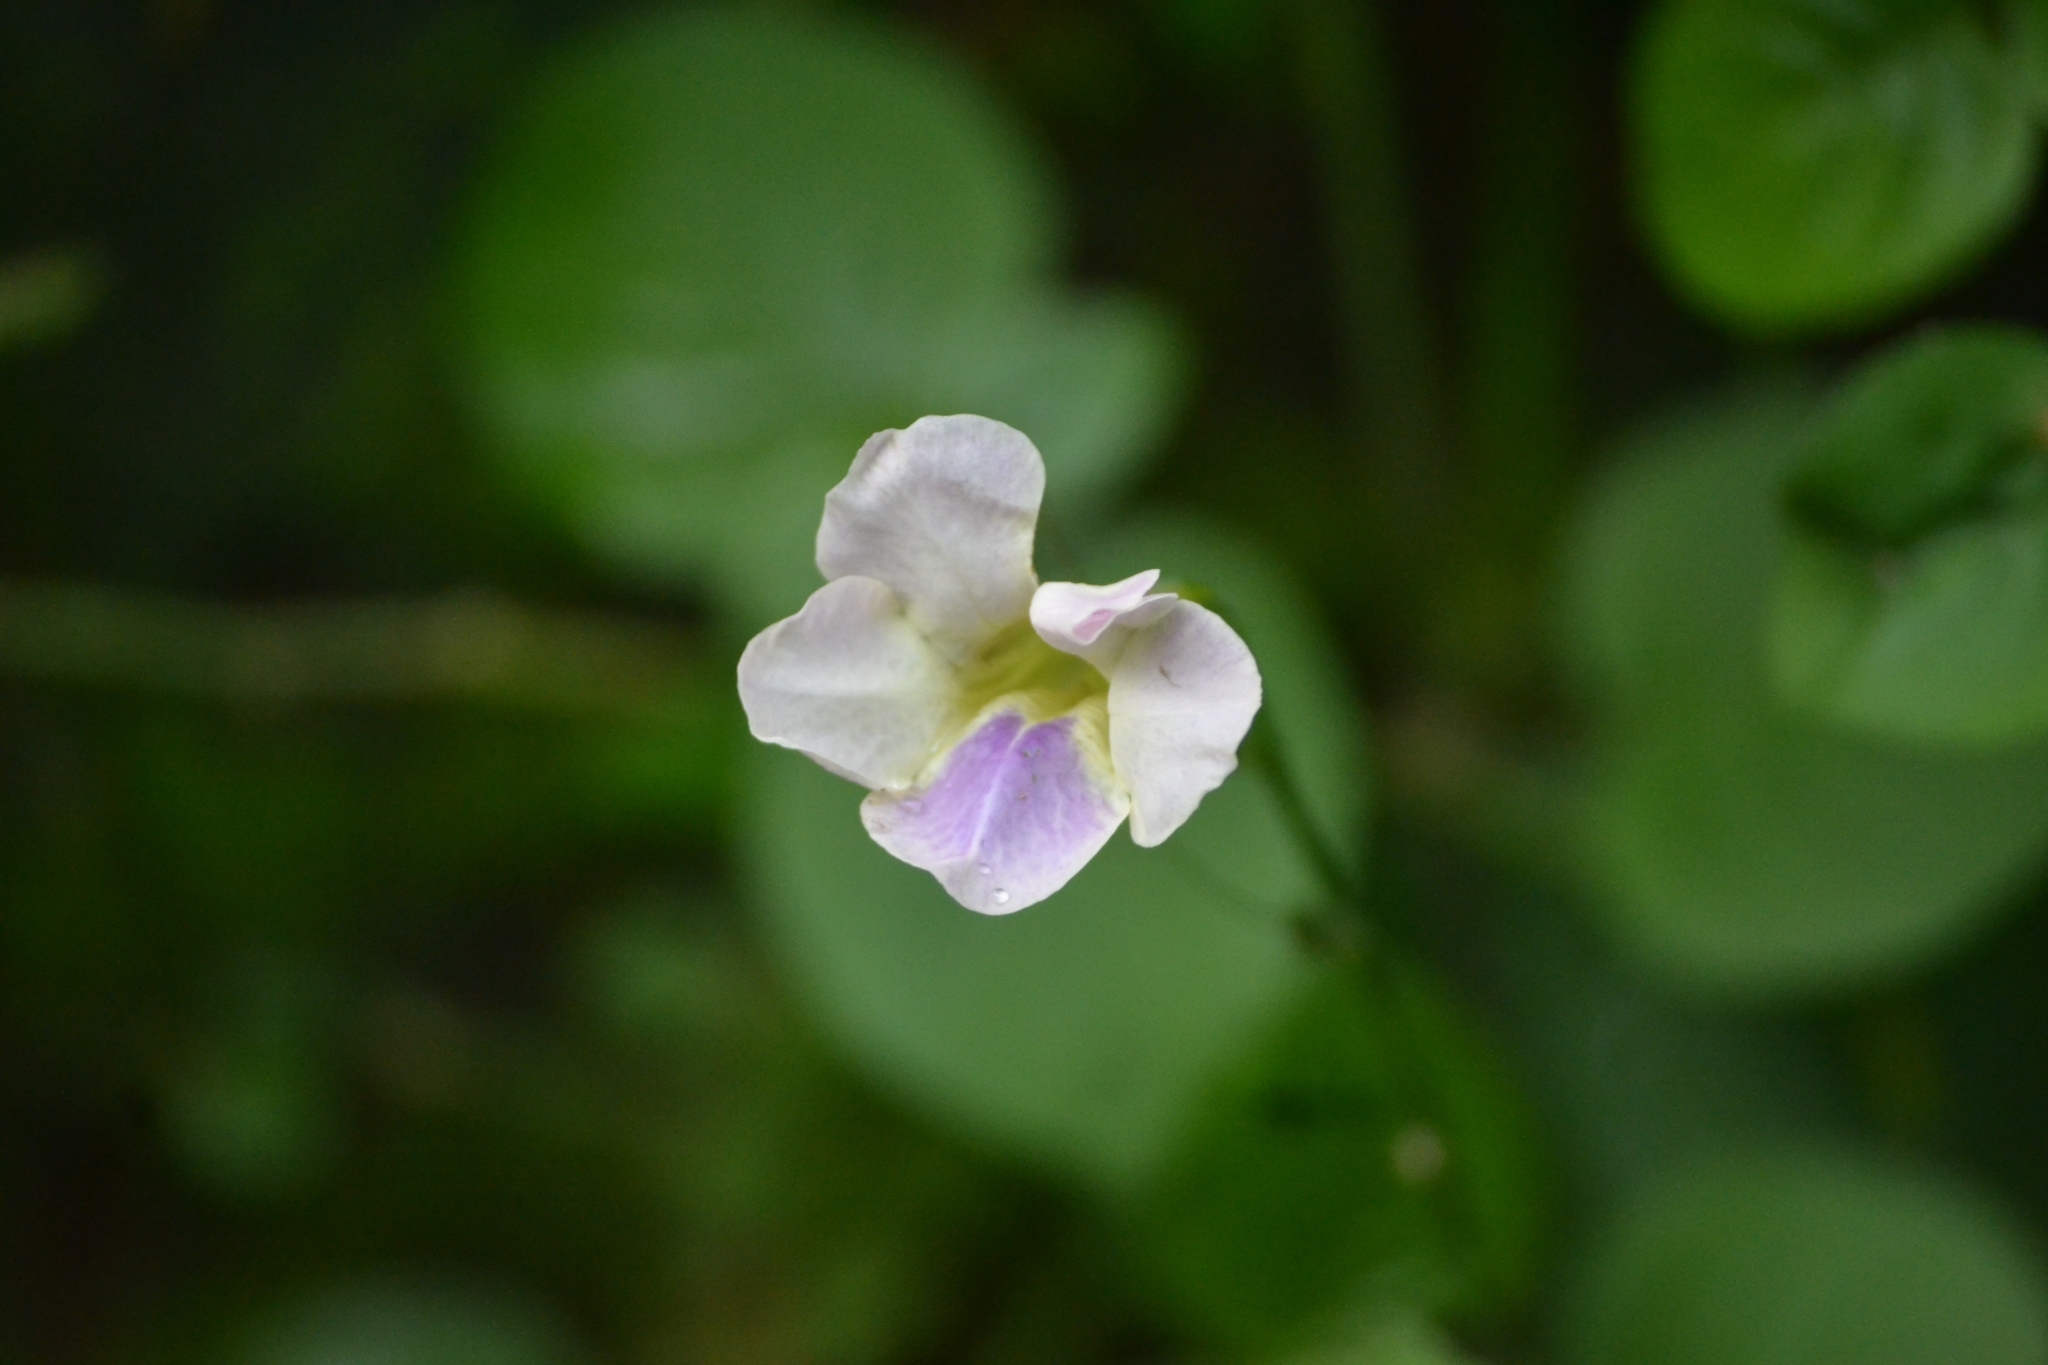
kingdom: Plantae
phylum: Tracheophyta
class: Magnoliopsida
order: Lamiales
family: Acanthaceae
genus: Asystasia
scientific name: Asystasia gangetica
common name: Chinese violet
